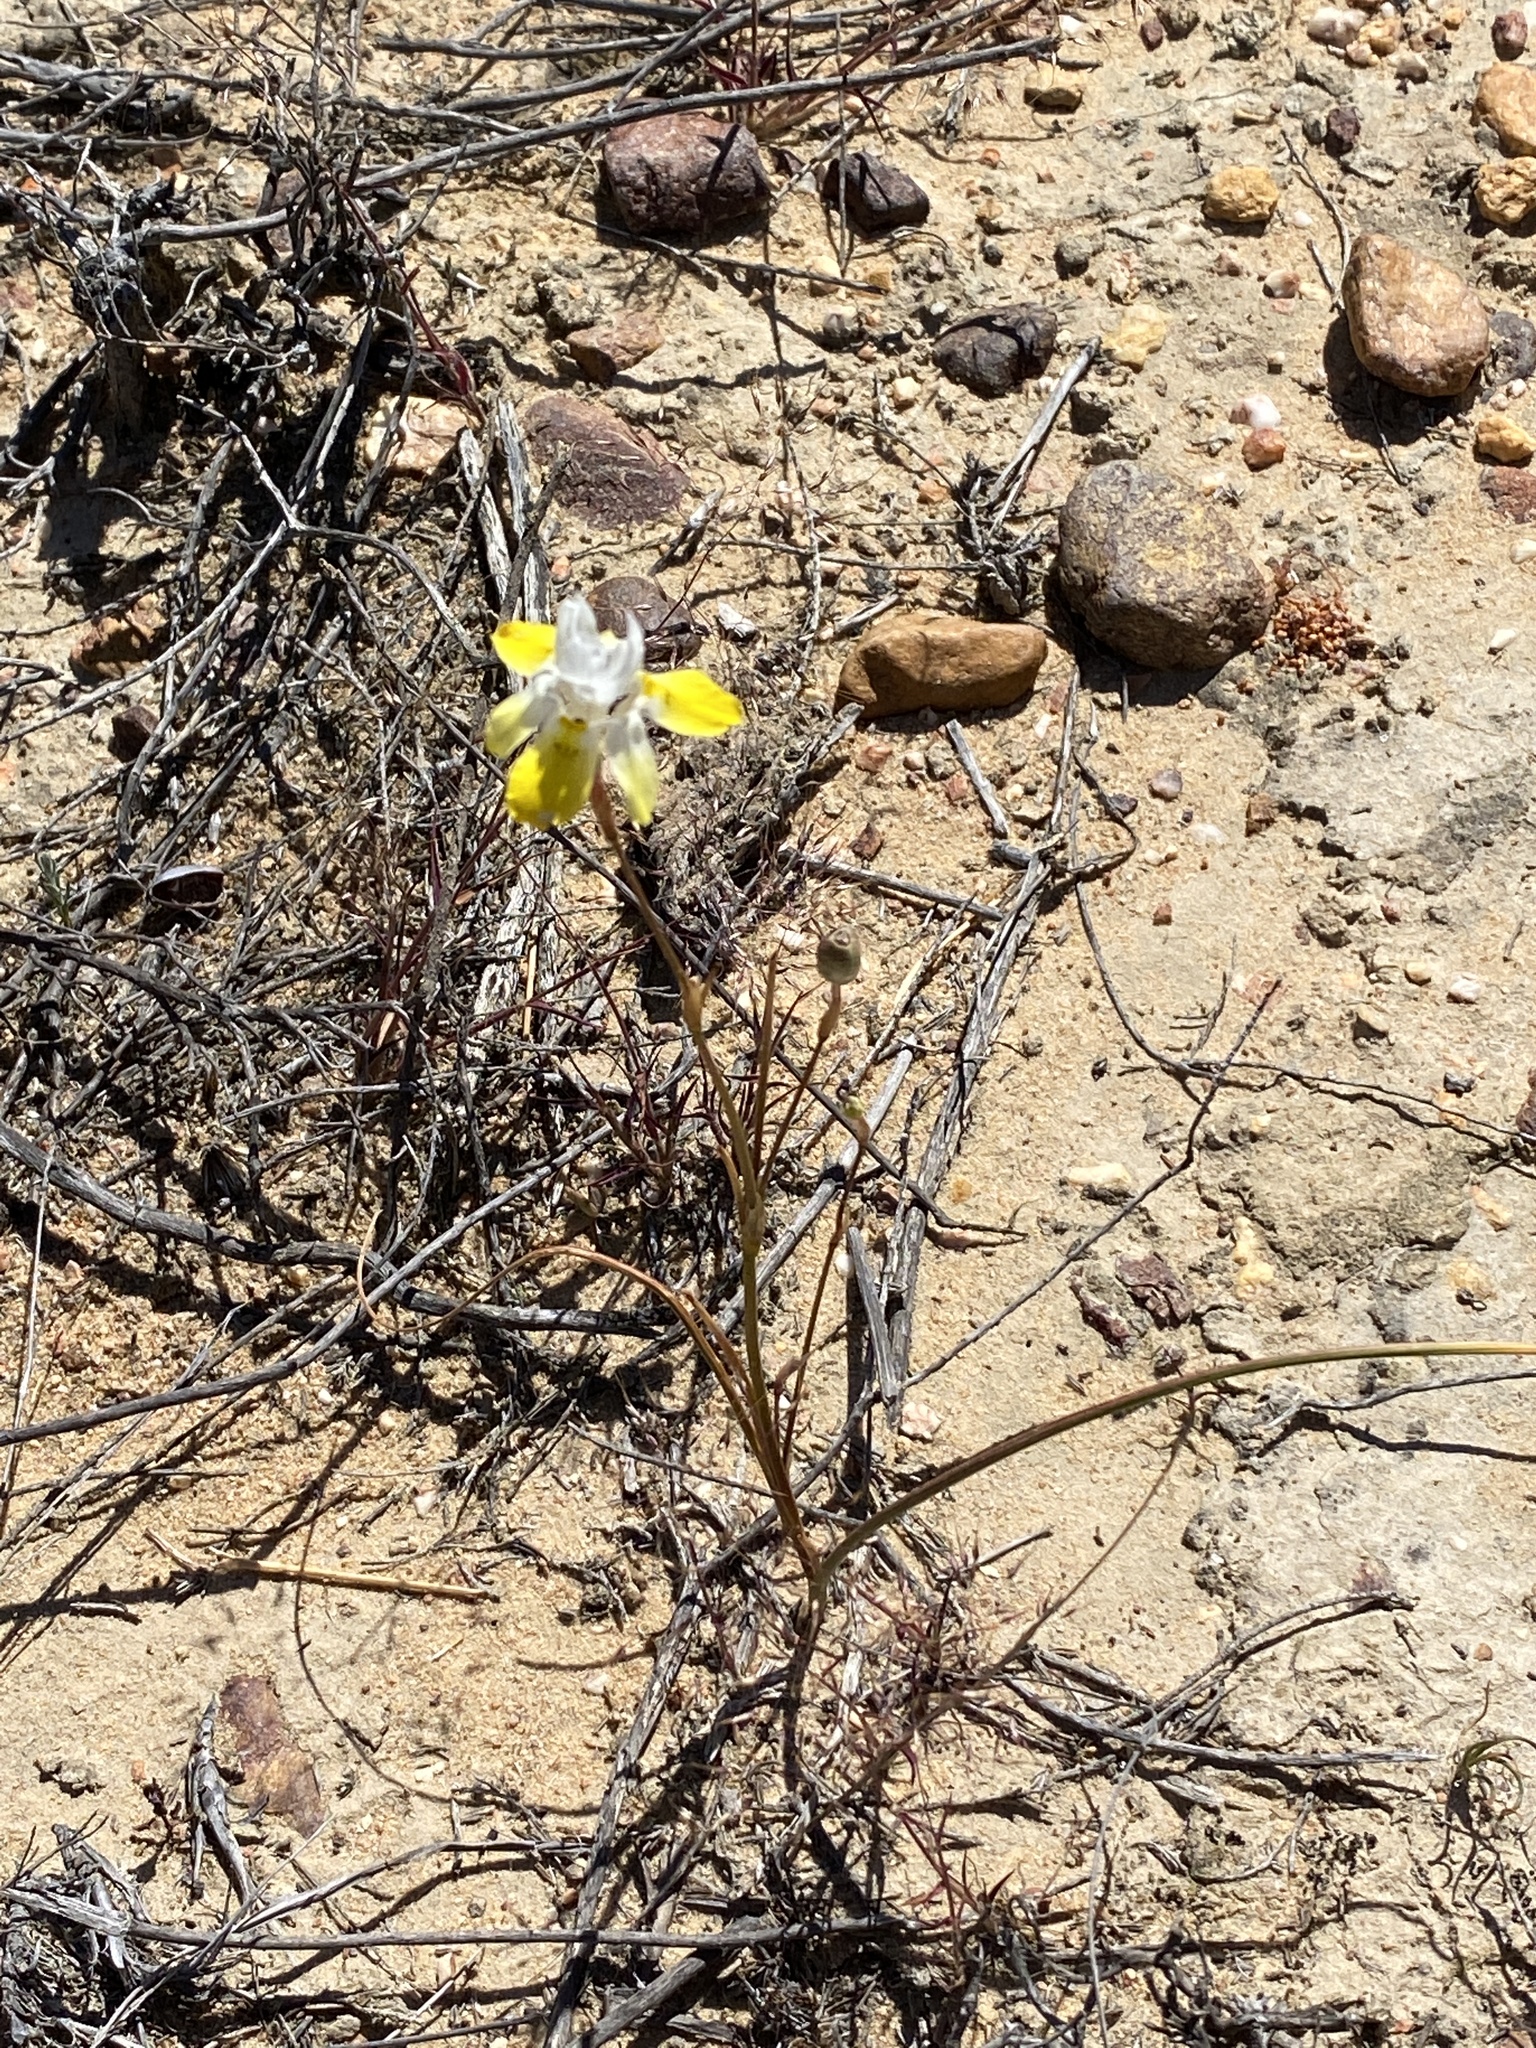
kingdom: Plantae
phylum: Tracheophyta
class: Liliopsida
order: Asparagales
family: Iridaceae
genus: Moraea
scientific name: Moraea gawleri
